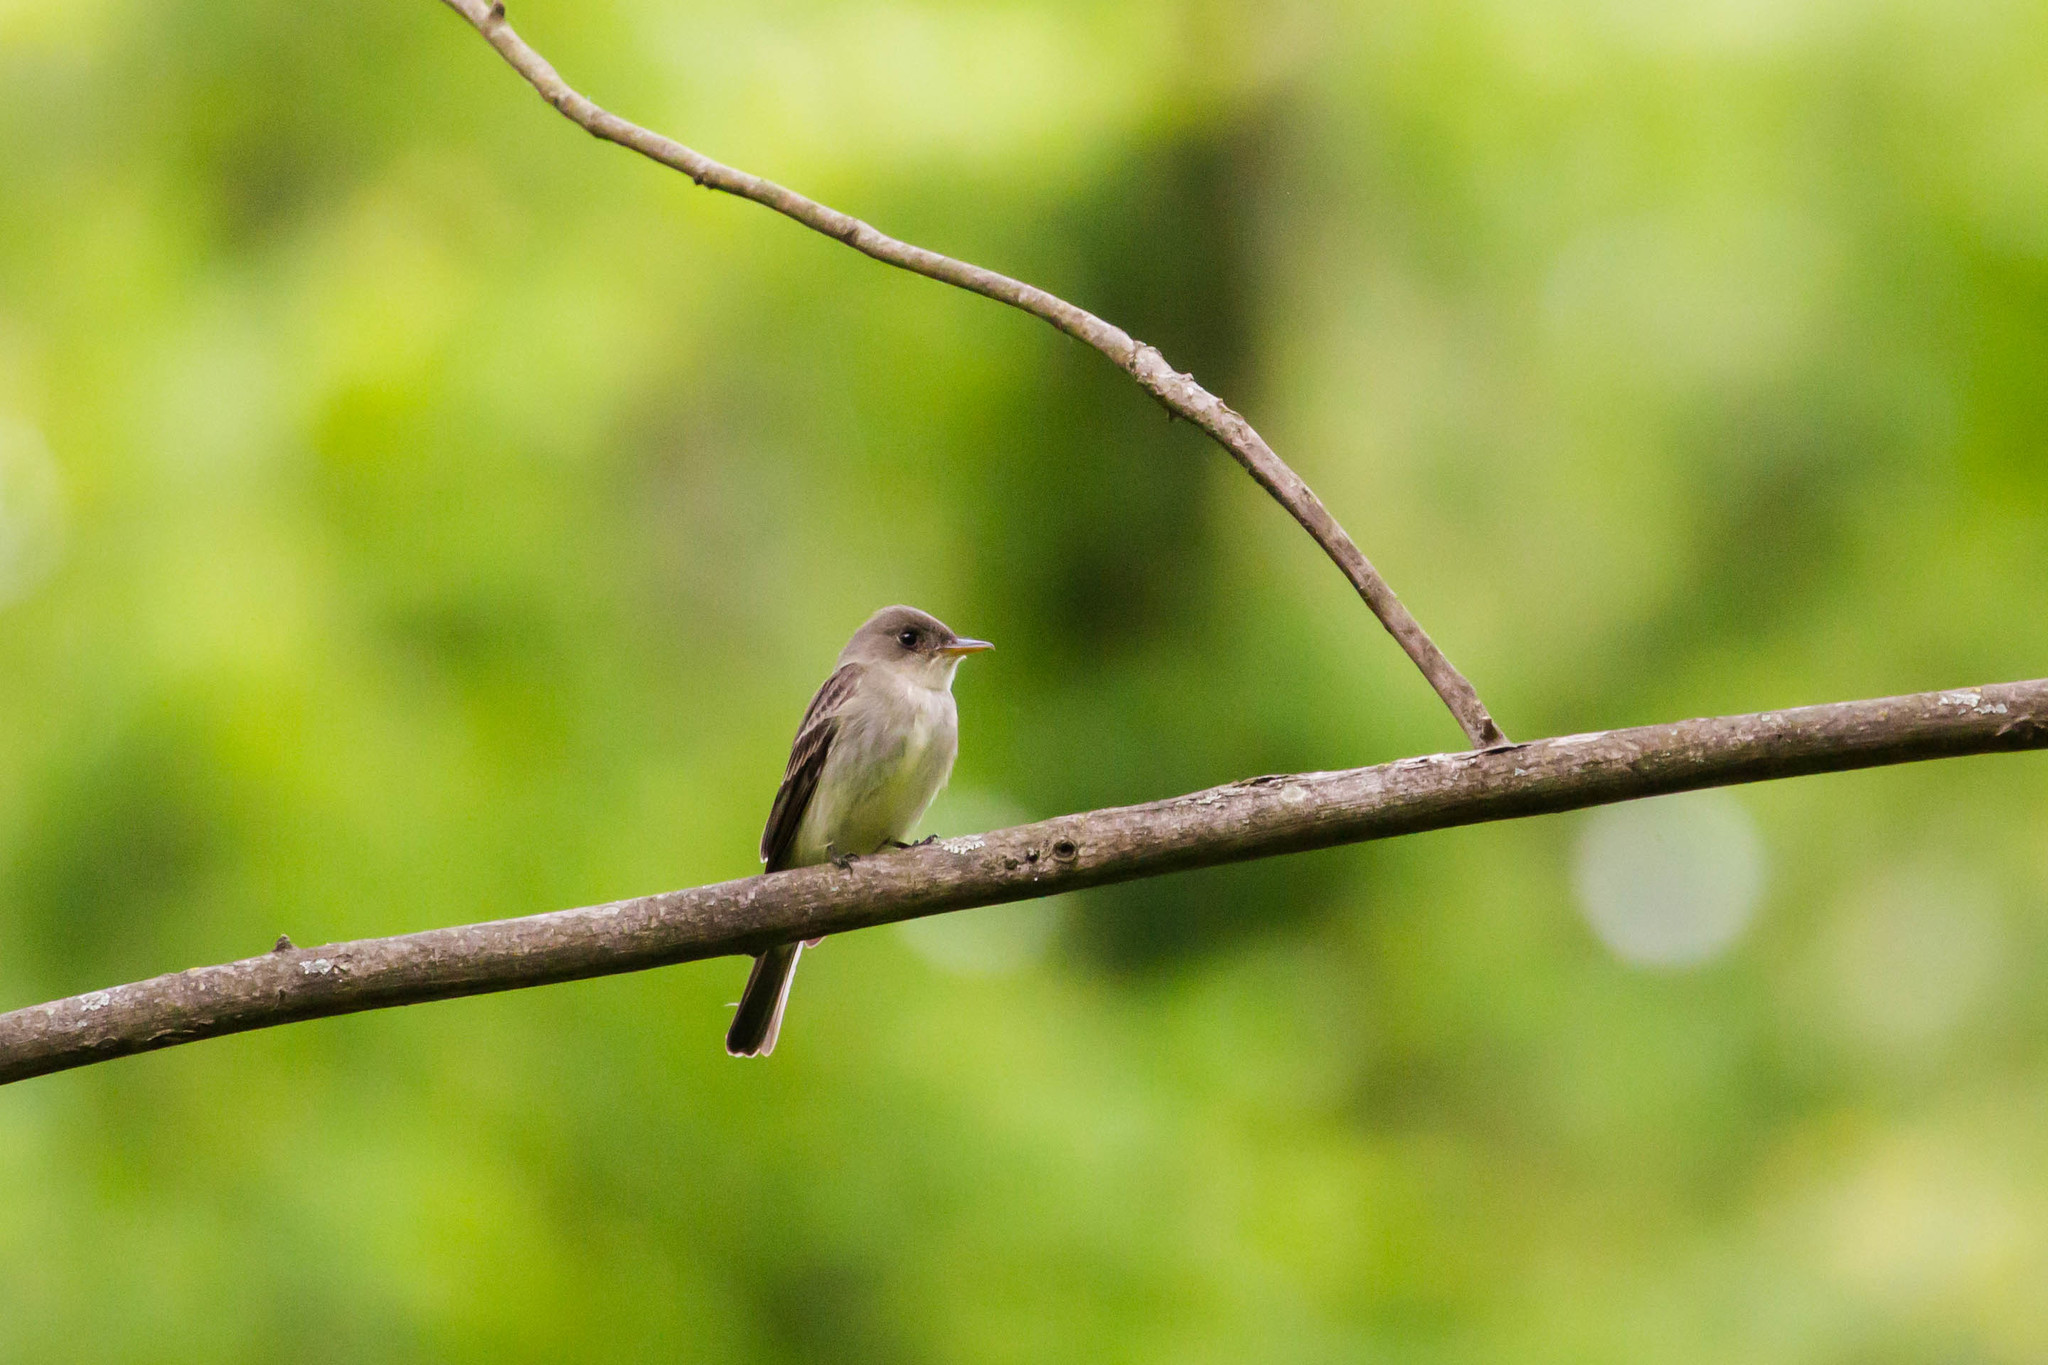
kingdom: Animalia
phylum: Chordata
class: Aves
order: Passeriformes
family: Tyrannidae
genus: Contopus
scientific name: Contopus virens
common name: Eastern wood-pewee
